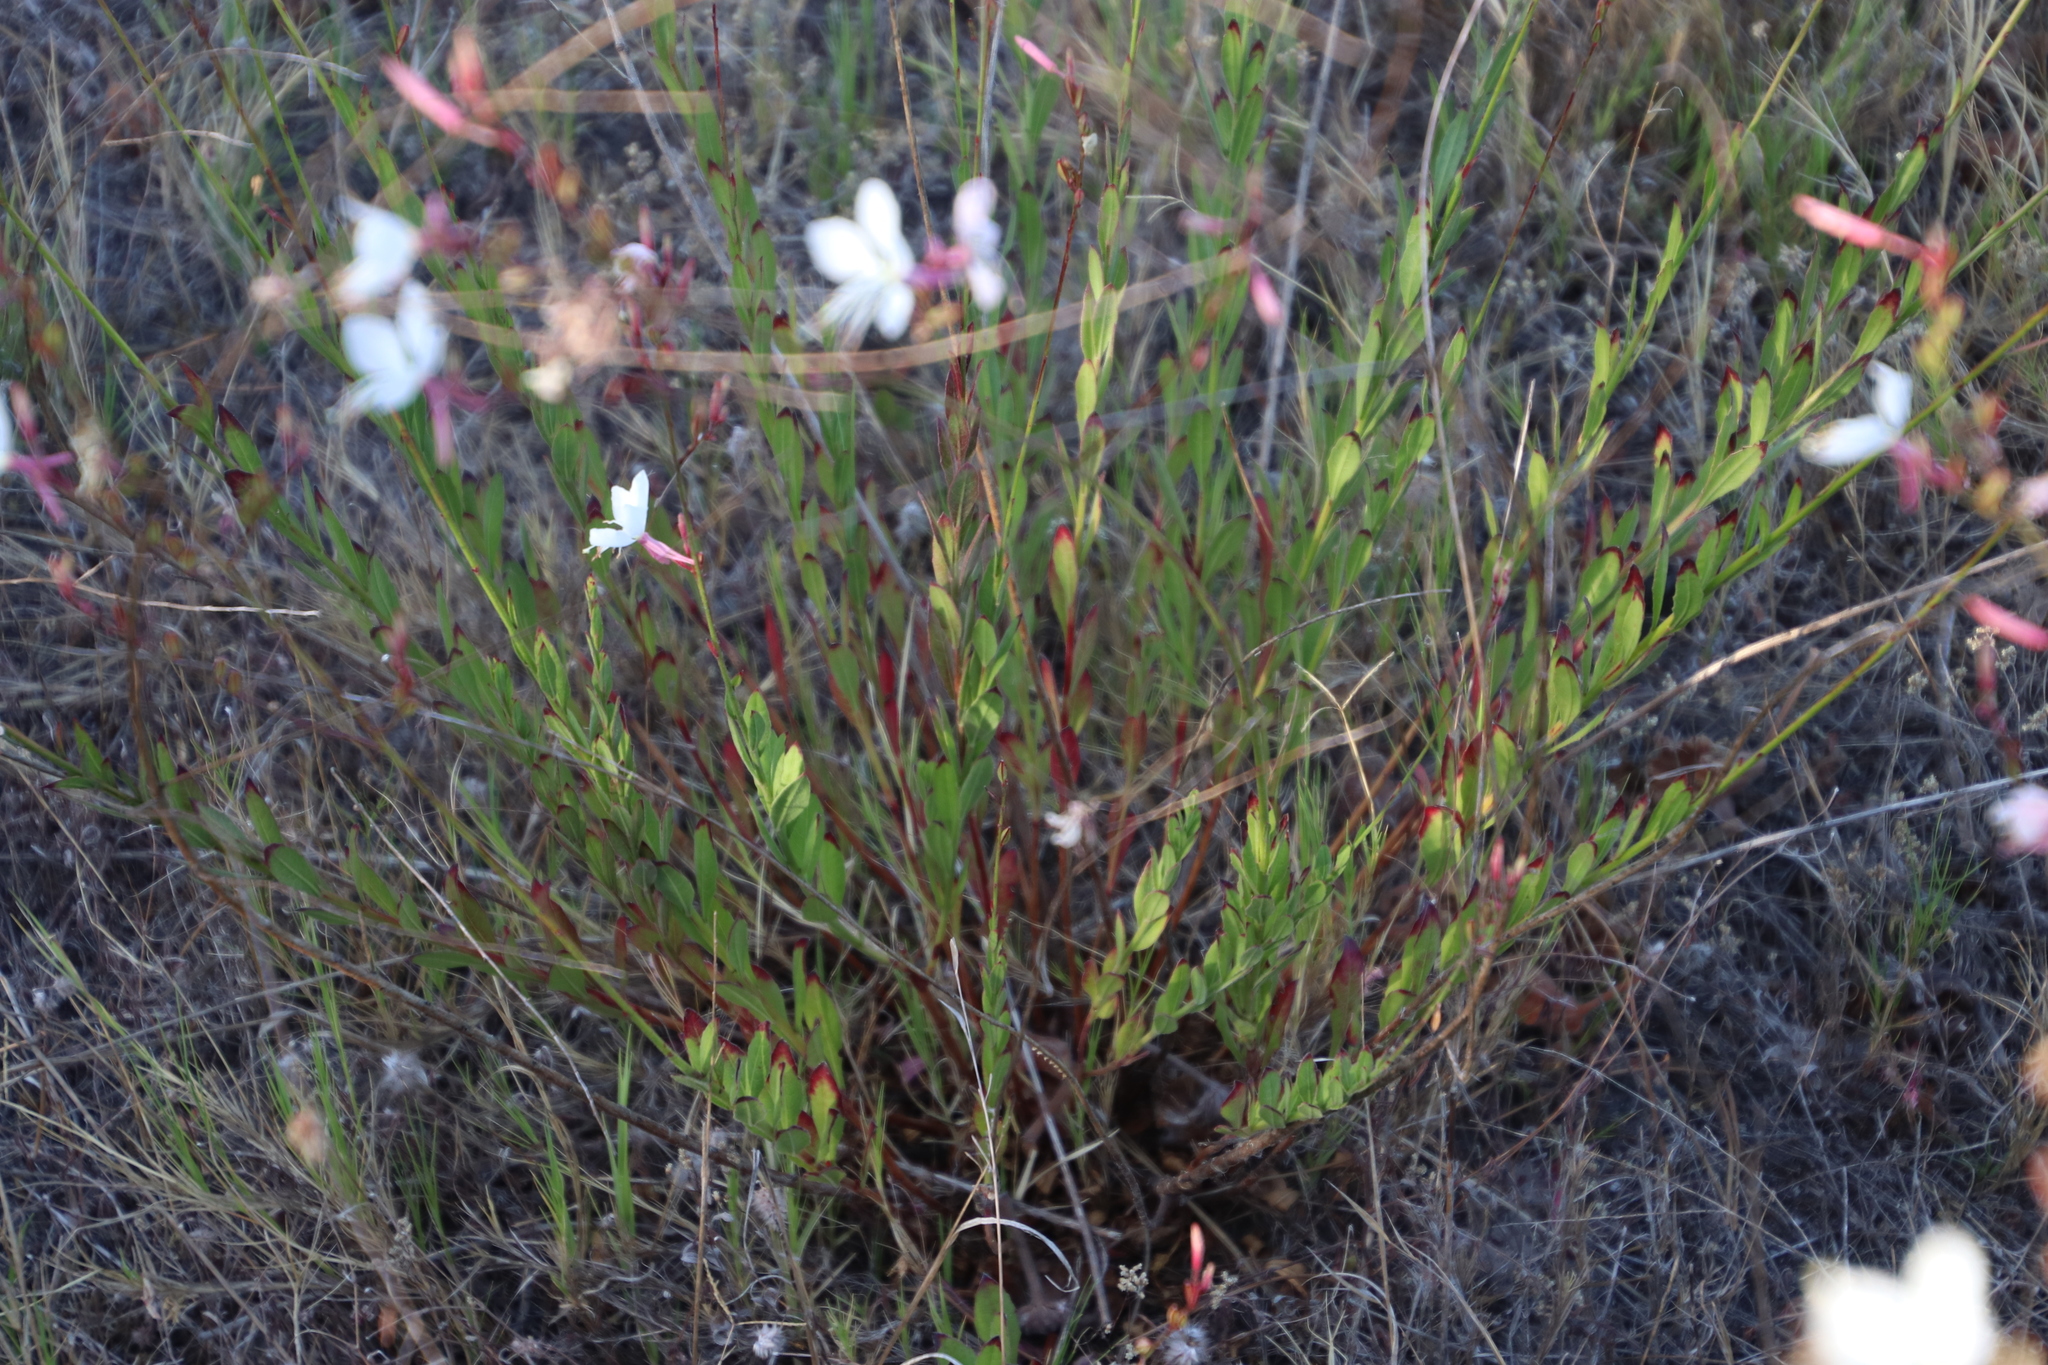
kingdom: Plantae
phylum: Tracheophyta
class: Magnoliopsida
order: Myrtales
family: Onagraceae
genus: Oenothera
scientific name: Oenothera lindheimeri
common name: Lindheimer's beeblossom
